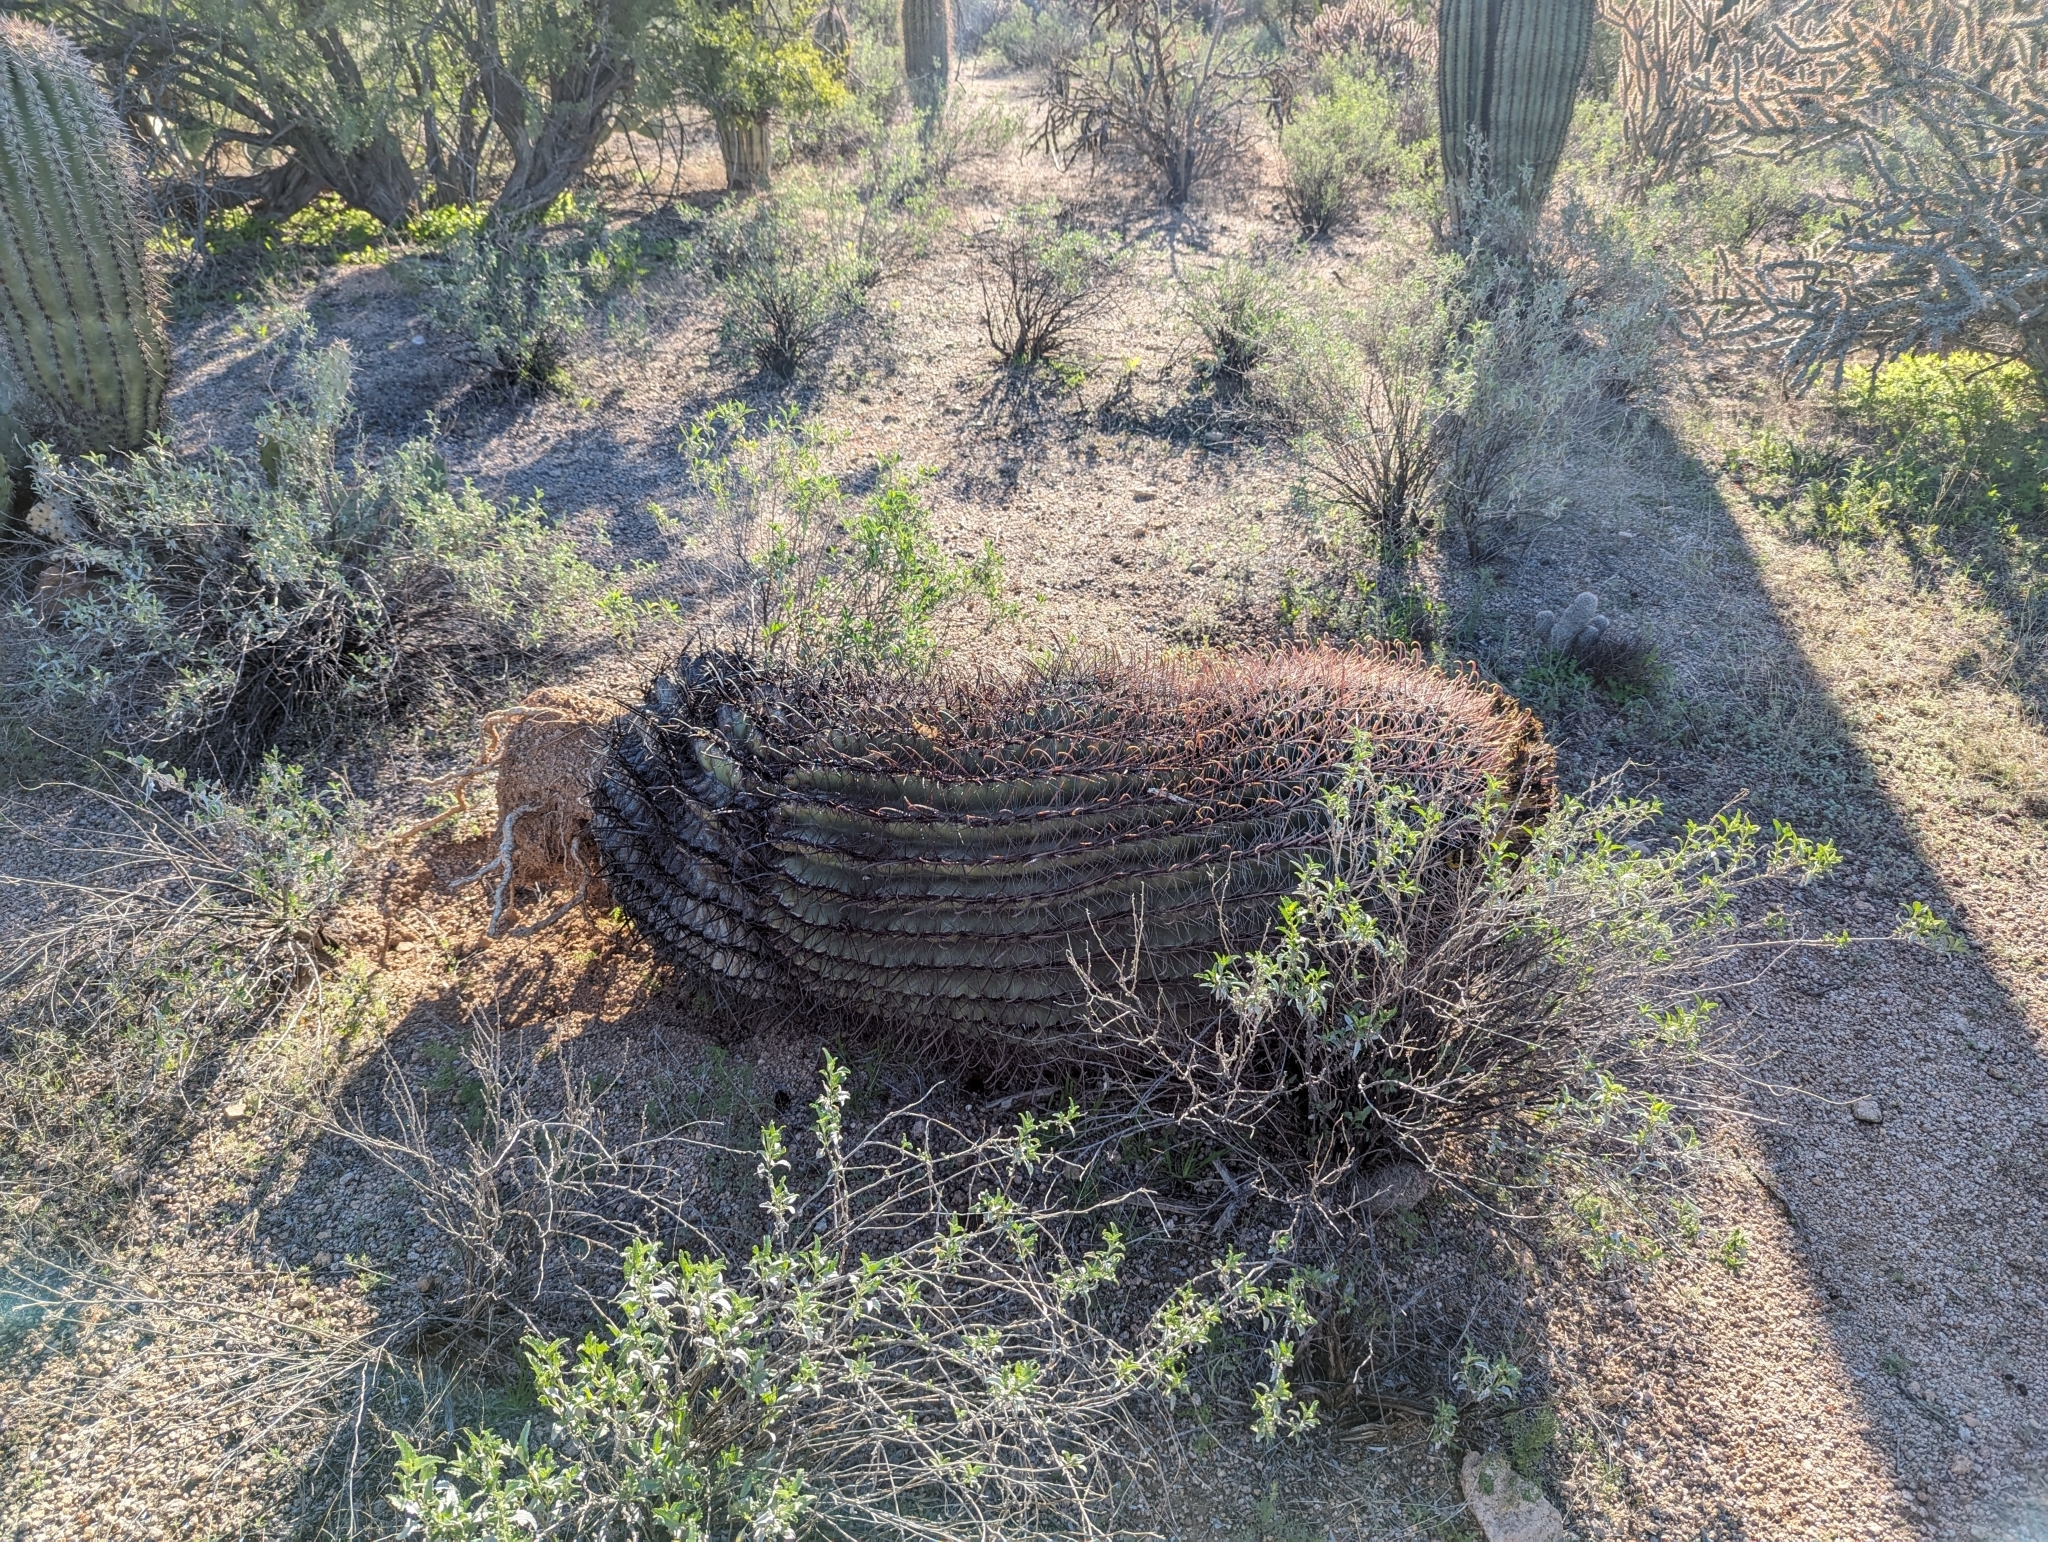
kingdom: Plantae
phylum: Tracheophyta
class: Magnoliopsida
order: Caryophyllales
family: Cactaceae
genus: Ferocactus
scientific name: Ferocactus wislizeni
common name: Candy barrel cactus
